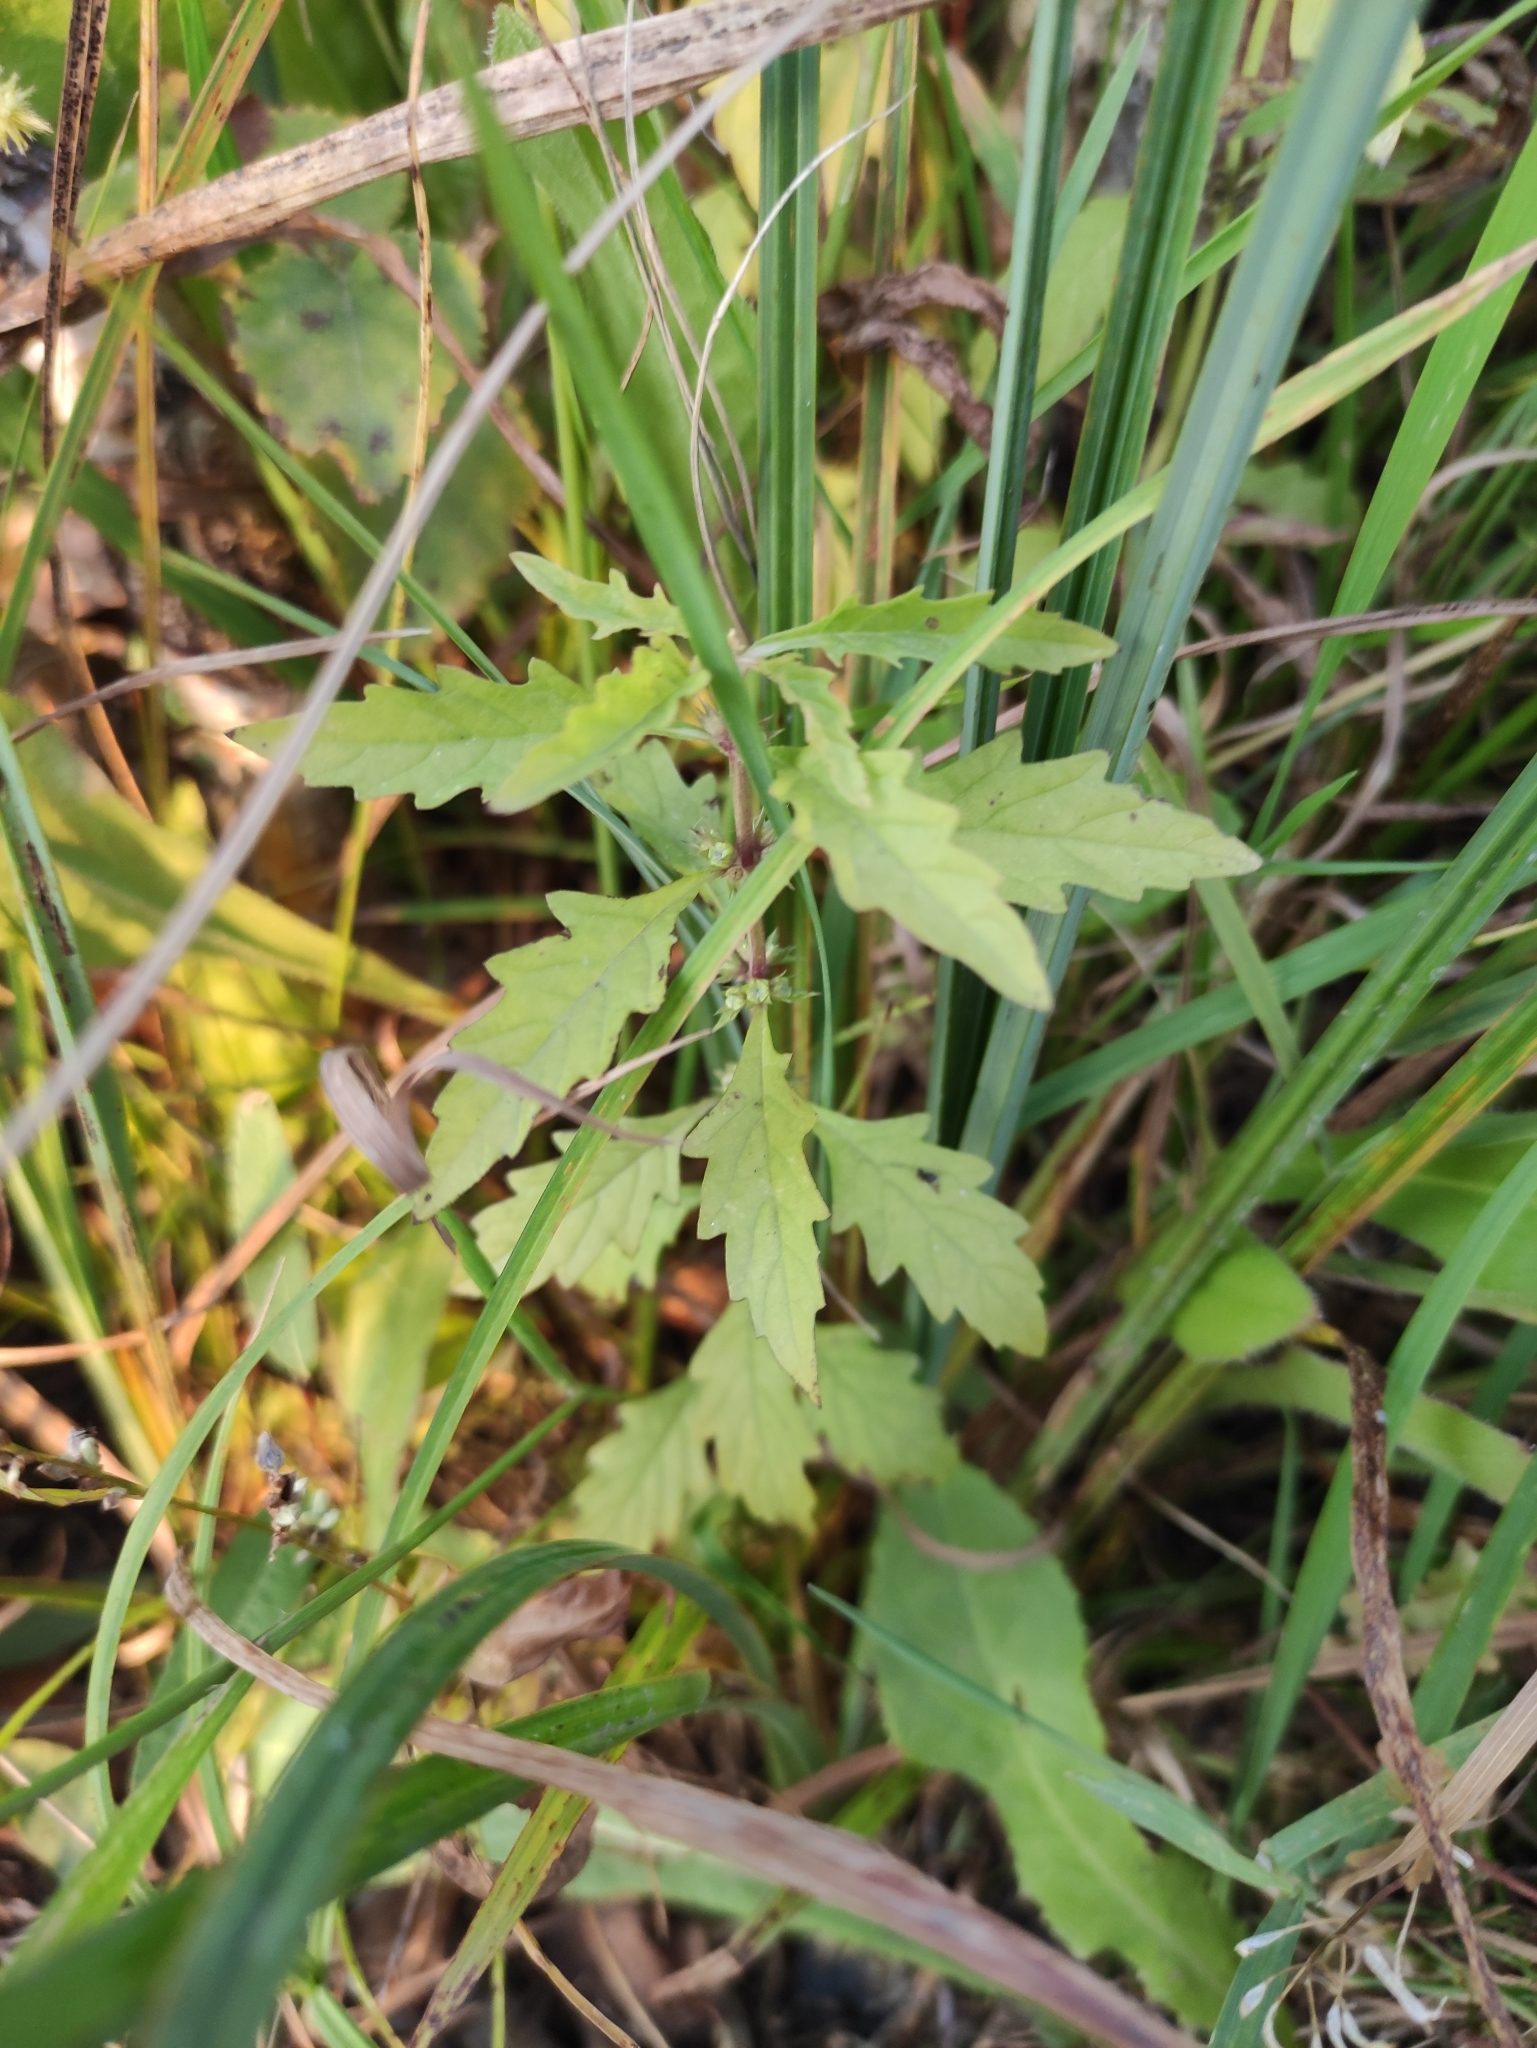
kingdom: Plantae
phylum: Tracheophyta
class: Magnoliopsida
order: Lamiales
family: Lamiaceae
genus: Lycopus
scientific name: Lycopus europaeus
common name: European bugleweed
